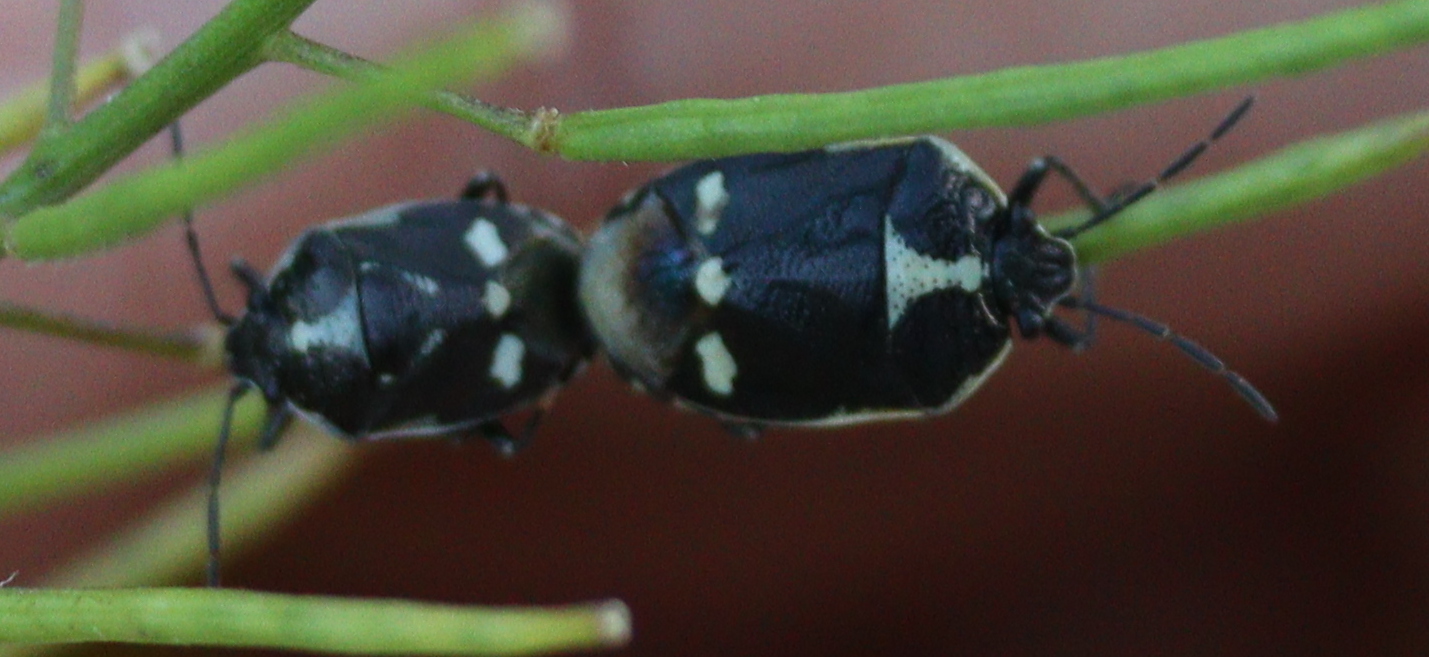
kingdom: Animalia
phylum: Arthropoda
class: Insecta
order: Hemiptera
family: Pentatomidae
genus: Eurydema
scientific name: Eurydema oleracea
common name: Cabbage bug
